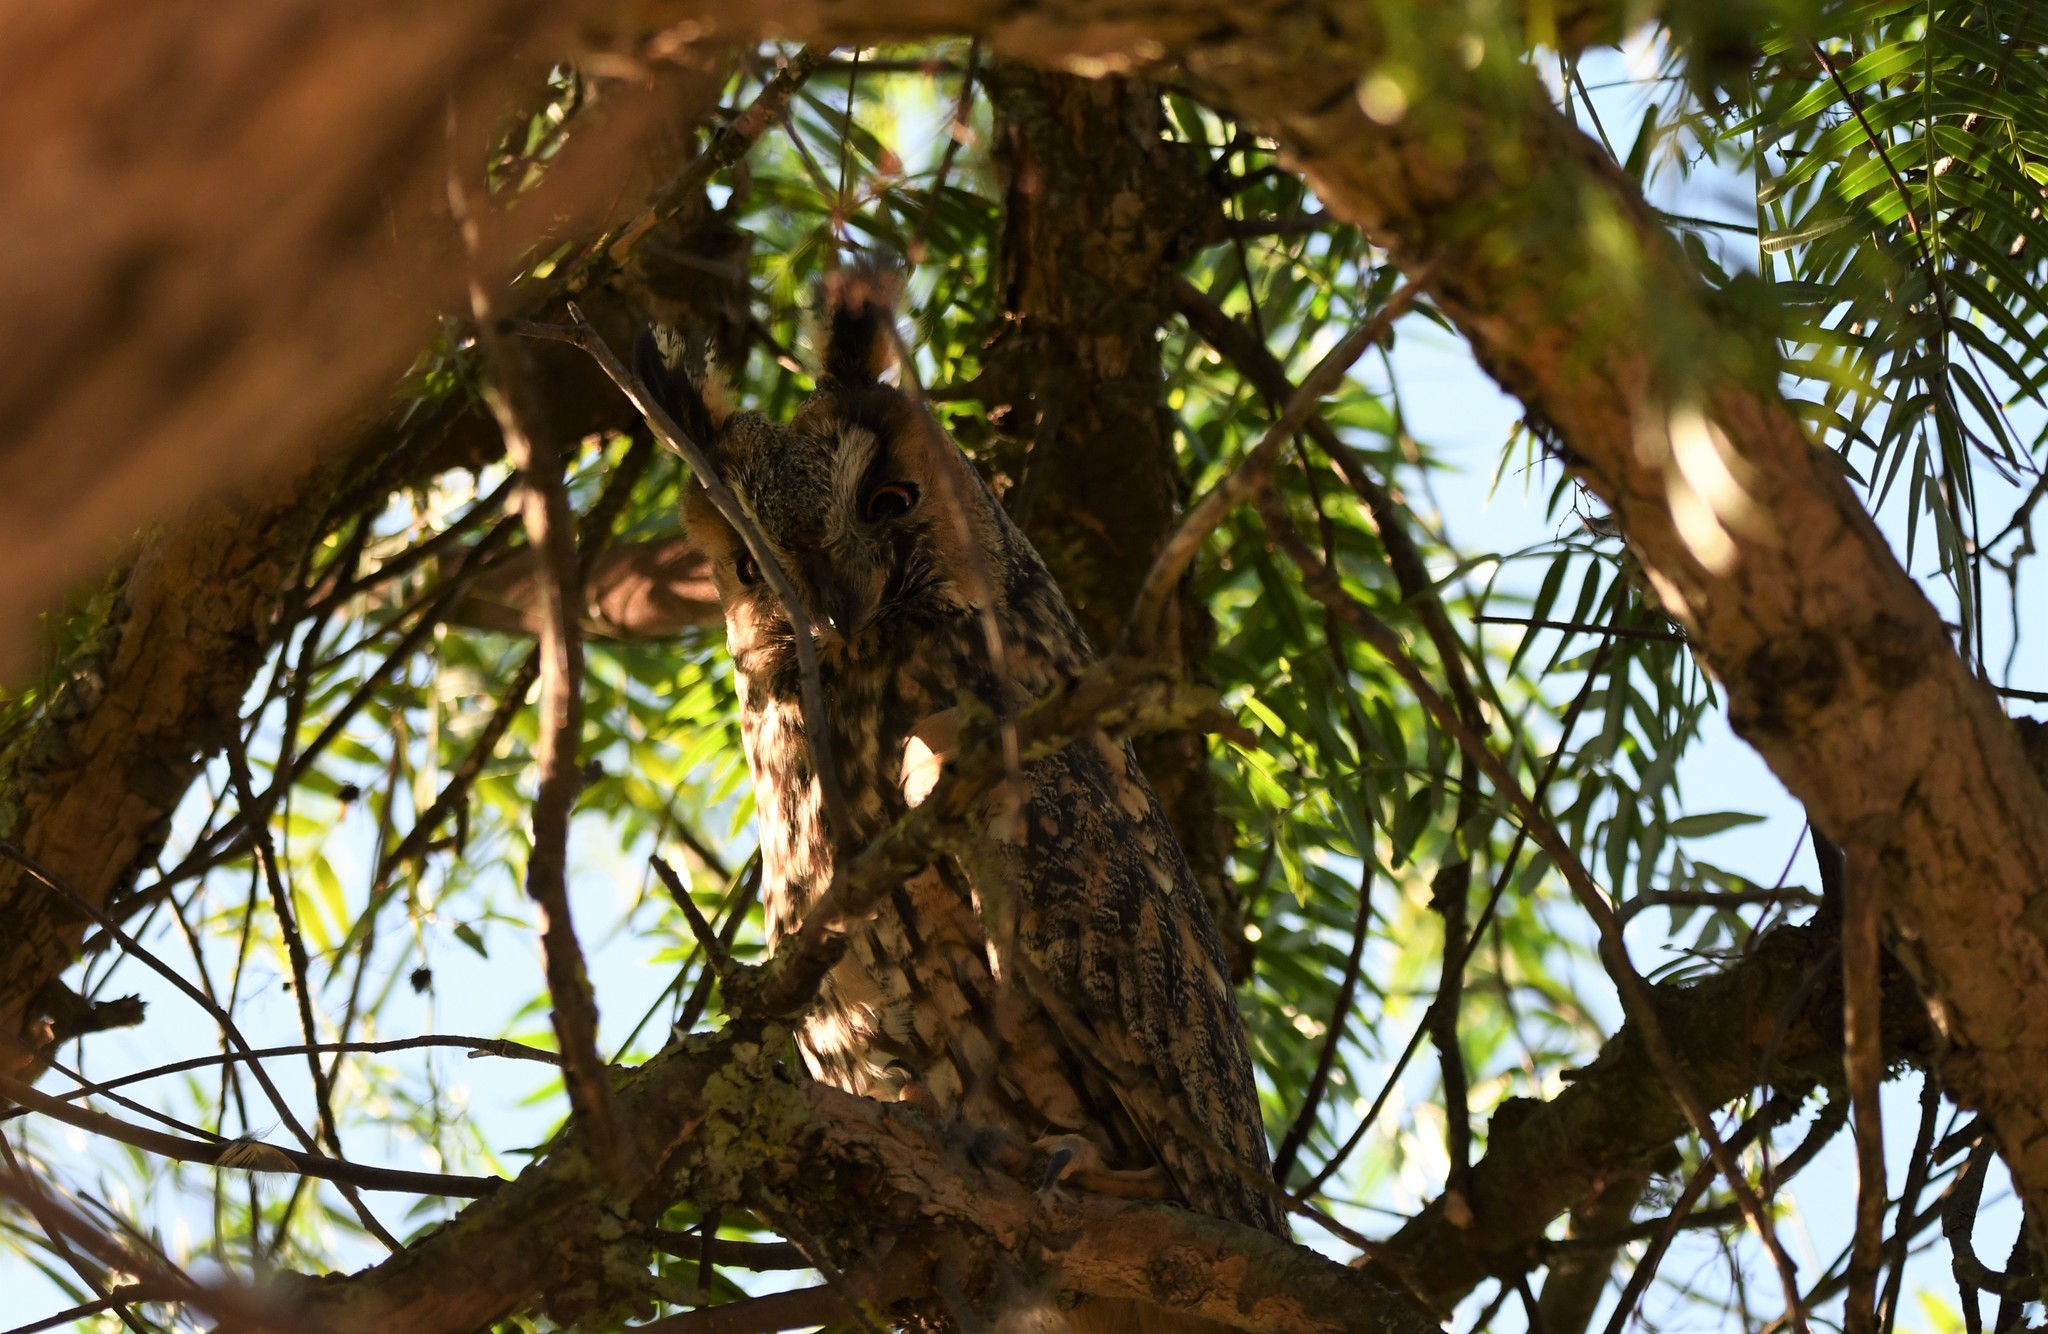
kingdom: Animalia
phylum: Chordata
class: Aves
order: Strigiformes
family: Strigidae
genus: Asio
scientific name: Asio otus
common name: Long-eared owl
